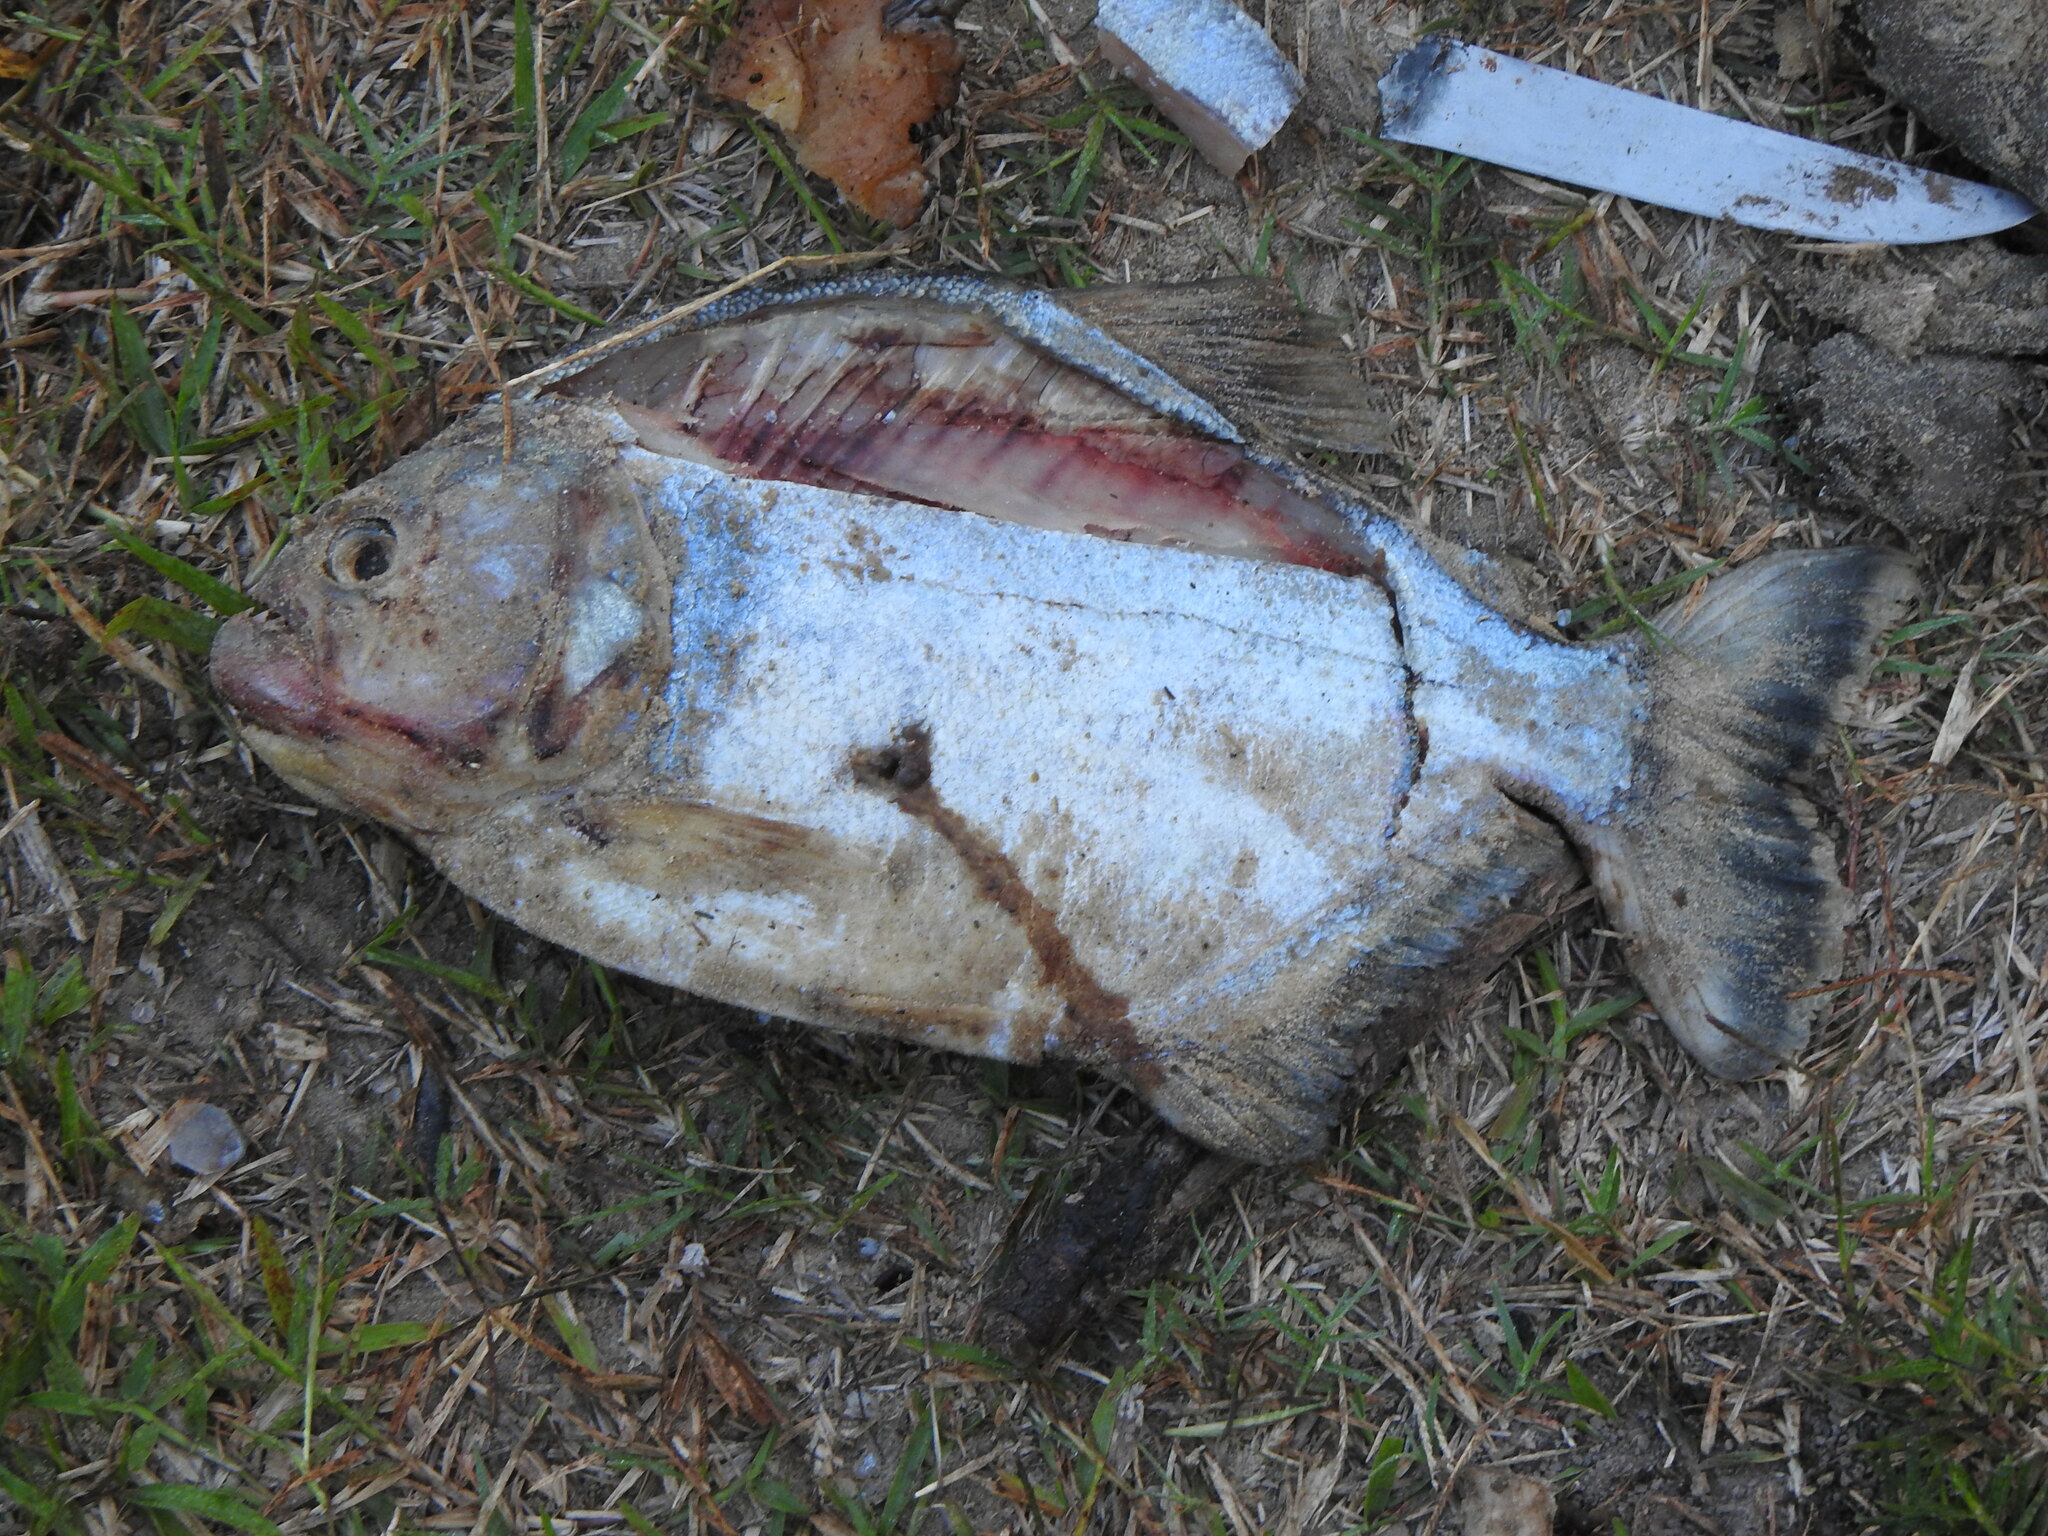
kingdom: Animalia
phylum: Chordata
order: Characiformes
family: Serrasalmidae
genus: Serrasalmus
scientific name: Serrasalmus maculatus
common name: Speckled piranha
